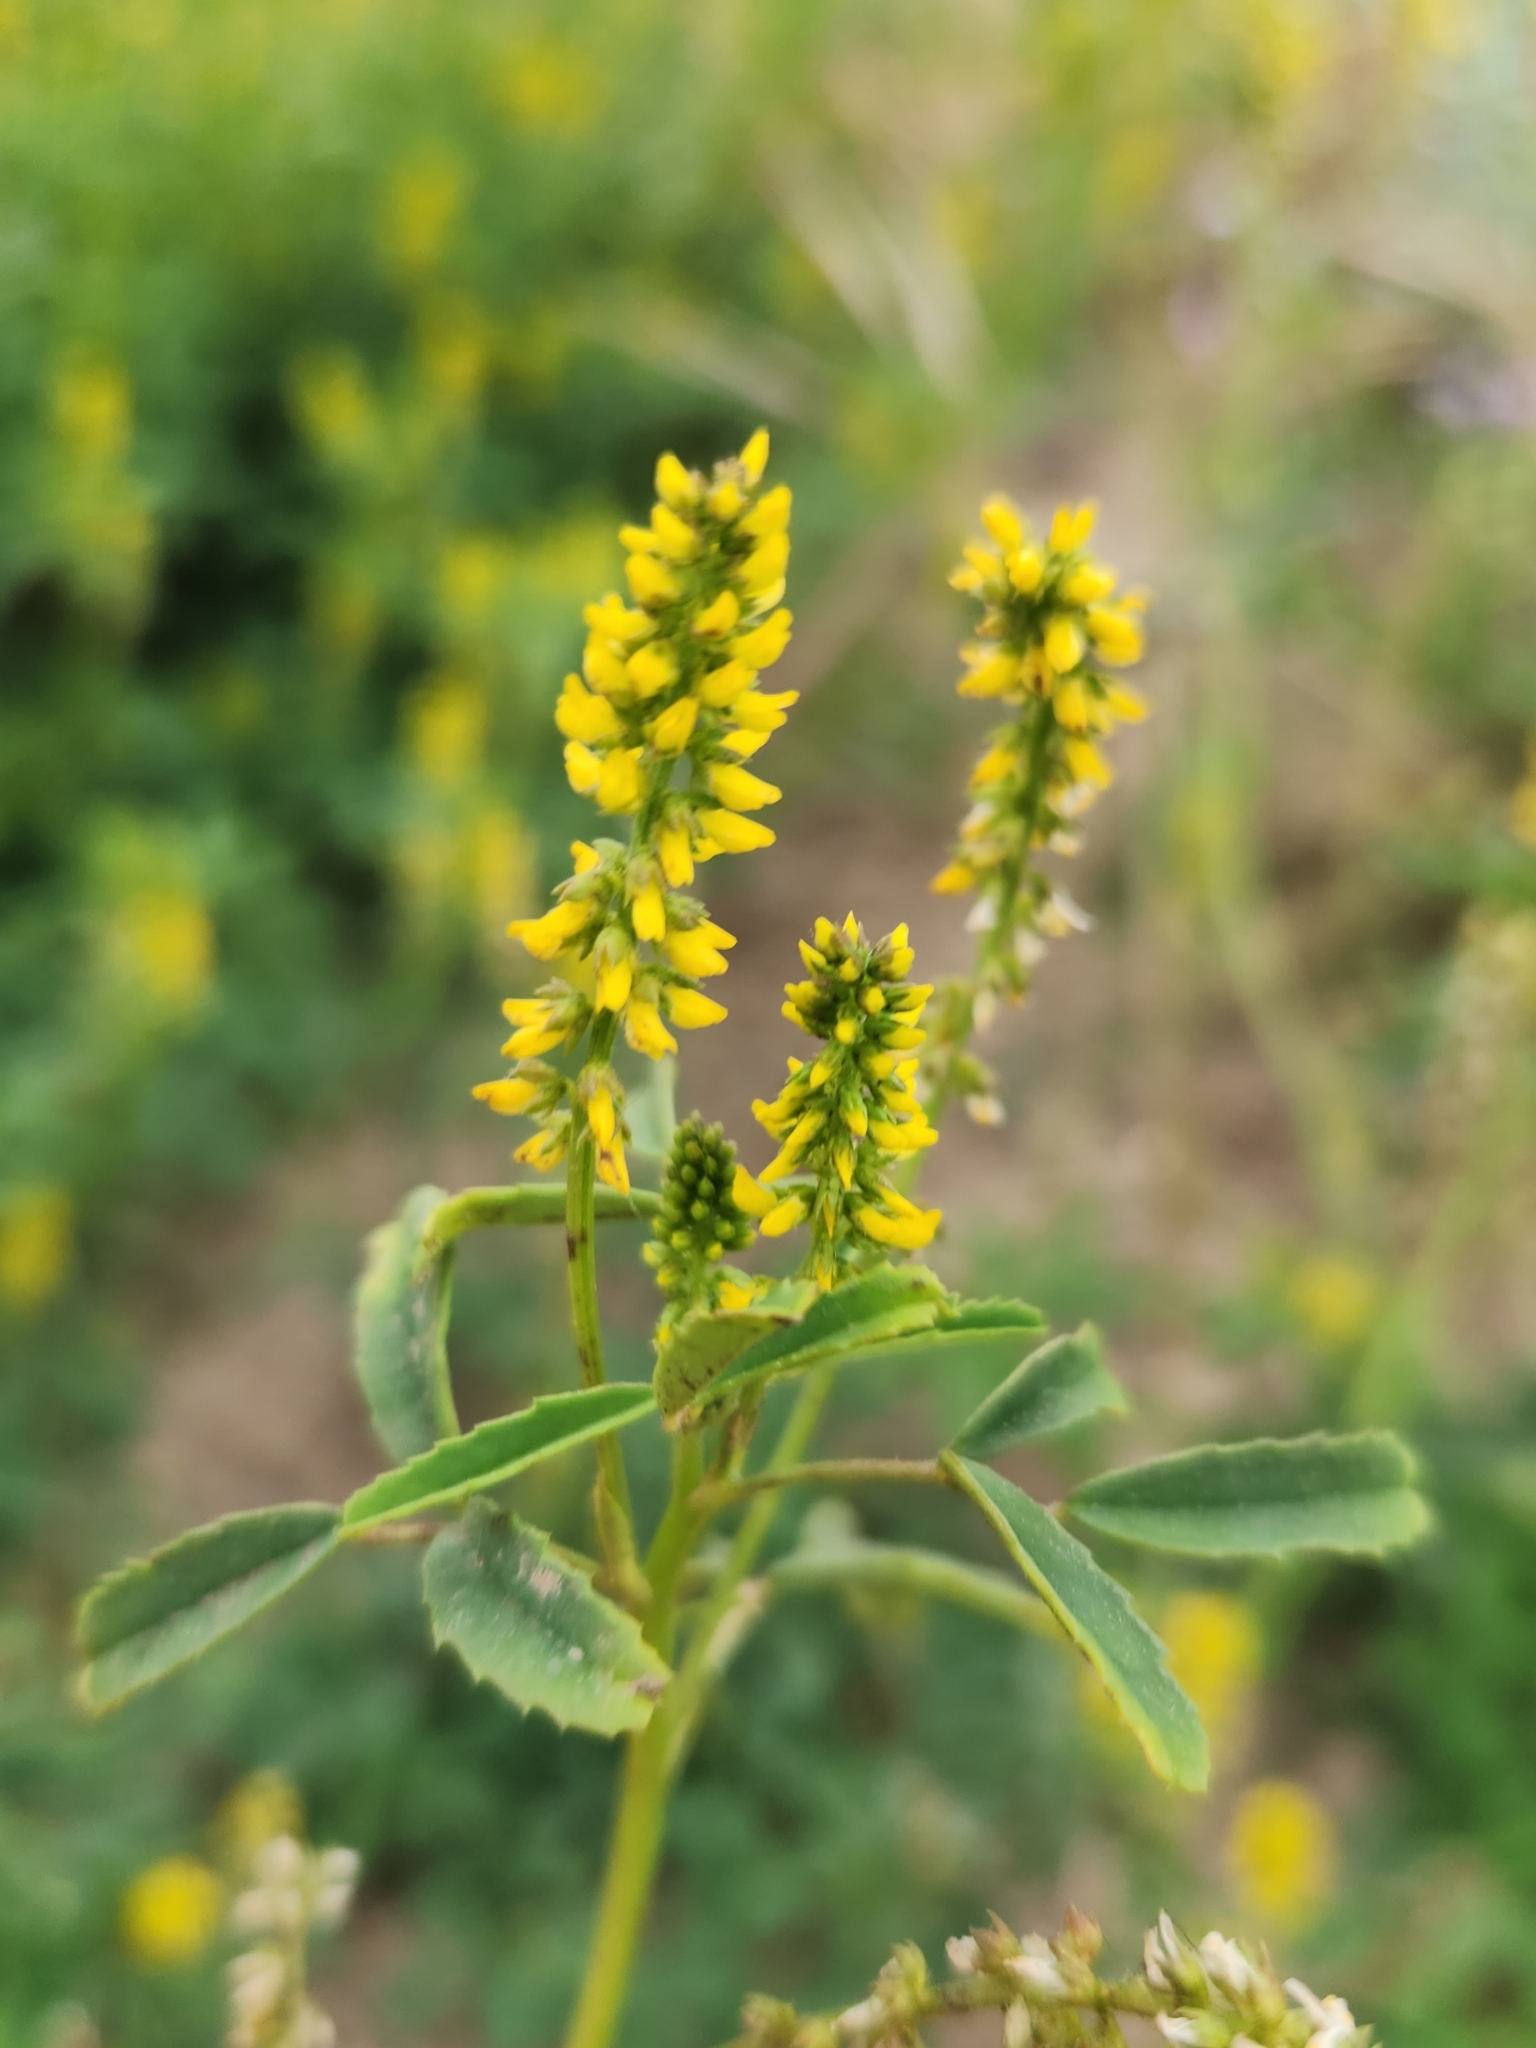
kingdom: Plantae
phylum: Tracheophyta
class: Magnoliopsida
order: Fabales
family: Fabaceae
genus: Melilotus
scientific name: Melilotus indicus
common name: Small melilot
